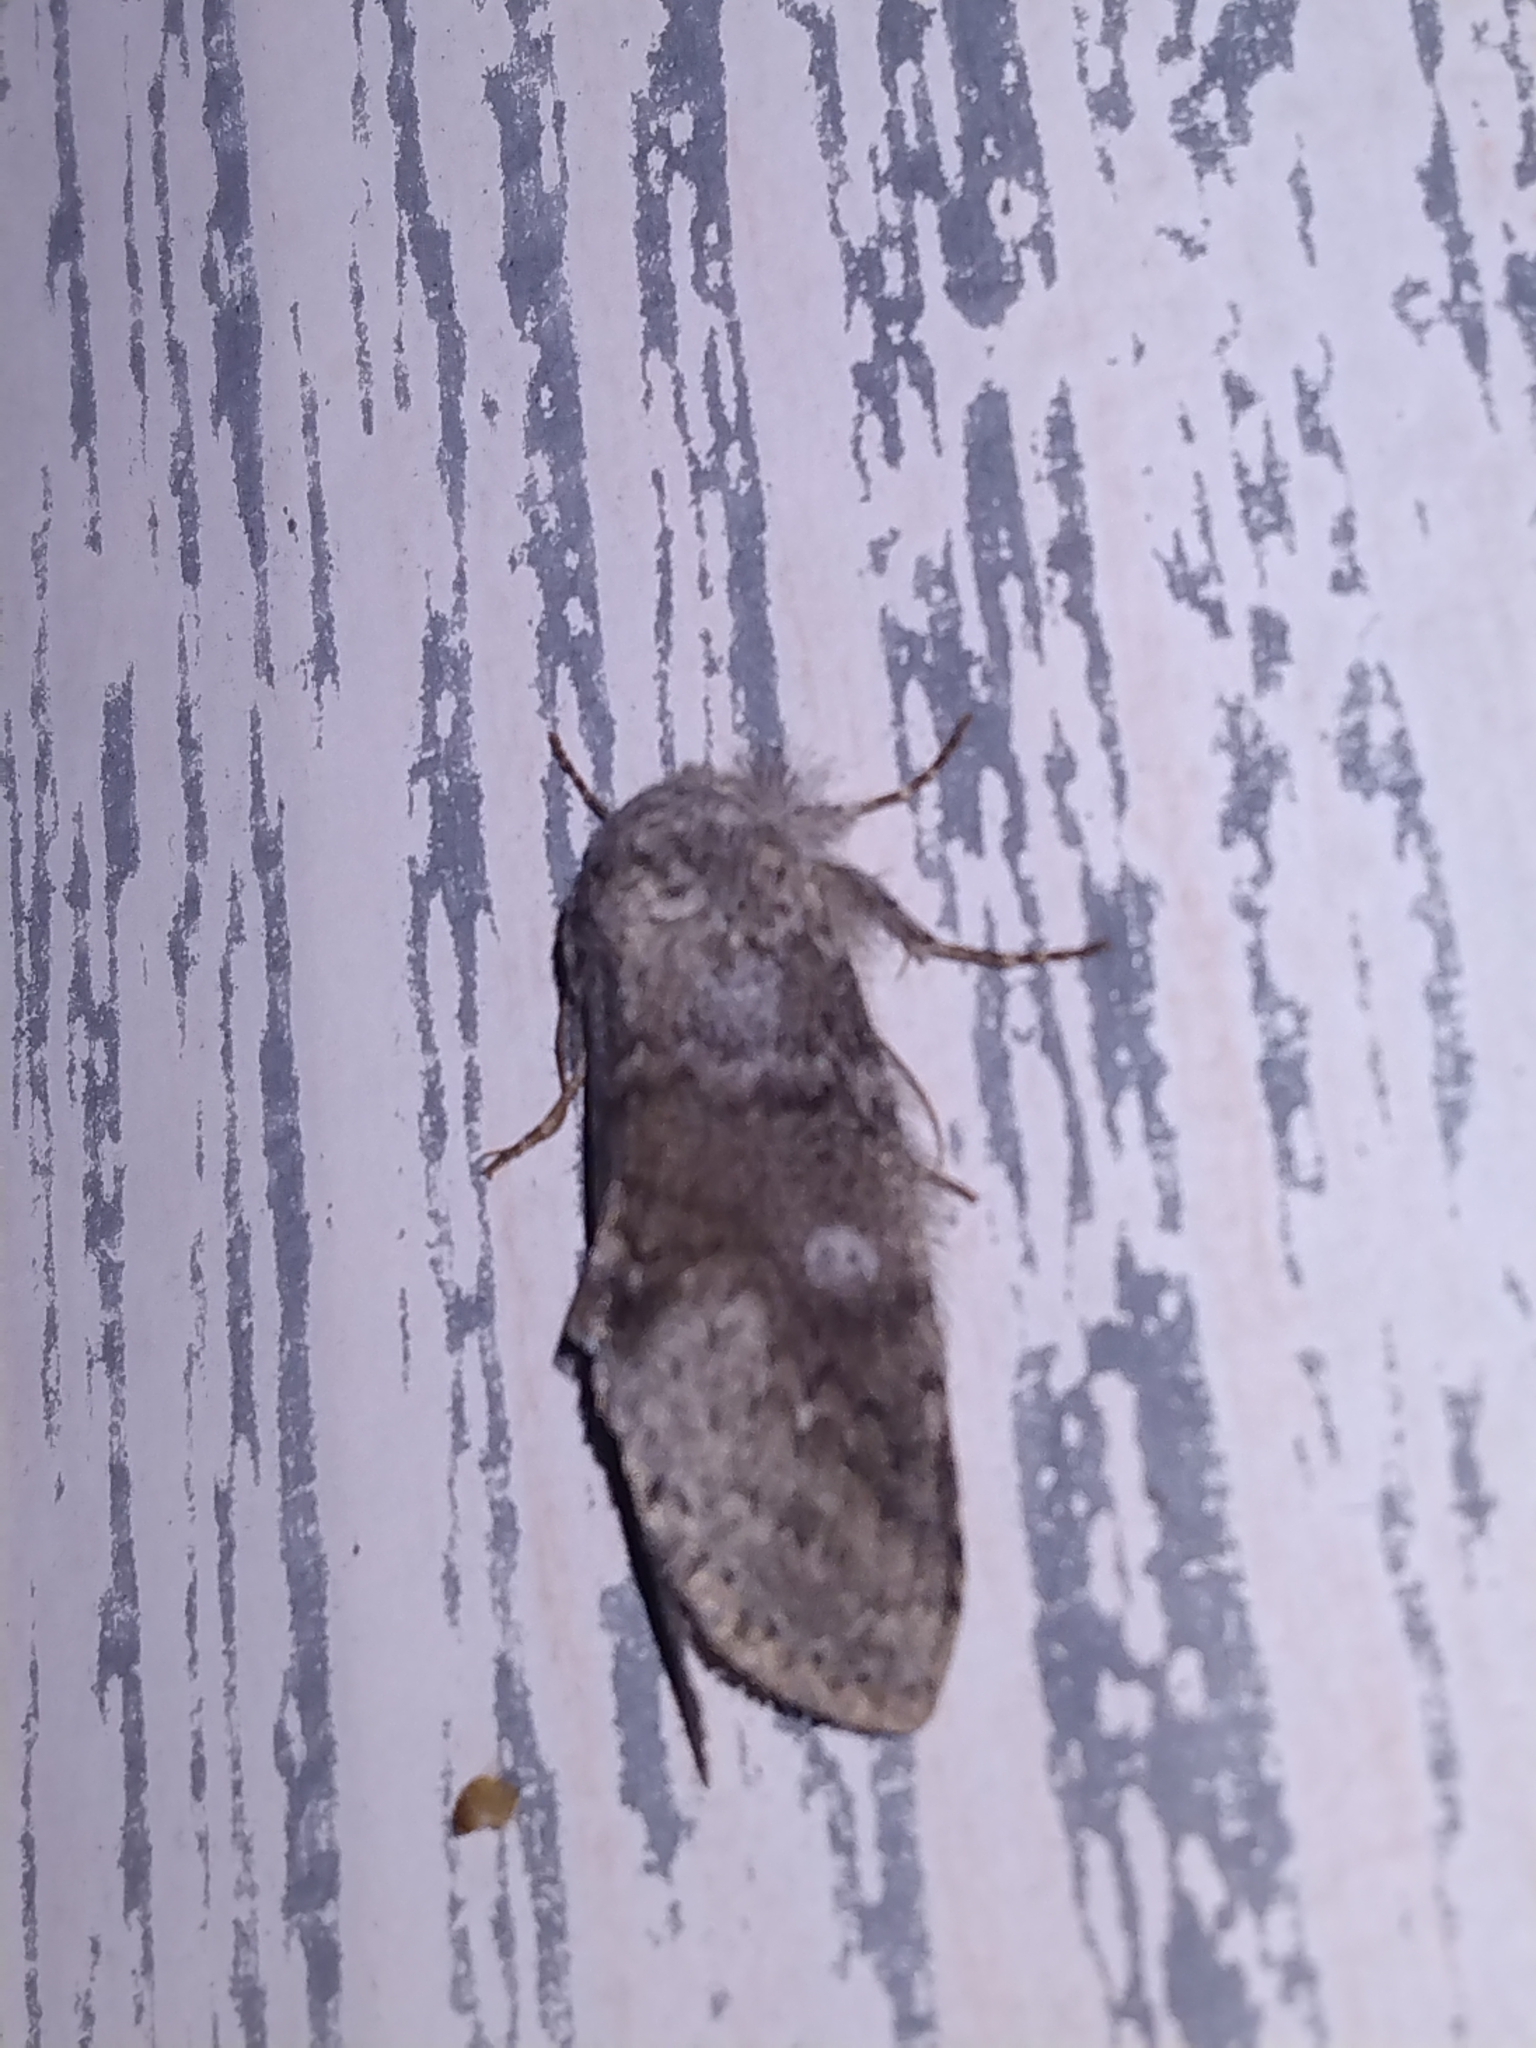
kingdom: Animalia
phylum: Arthropoda
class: Insecta
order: Lepidoptera
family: Notodontidae
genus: Lochmaeus
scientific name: Lochmaeus manteo
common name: Variable oakleaf caterpillar moth
